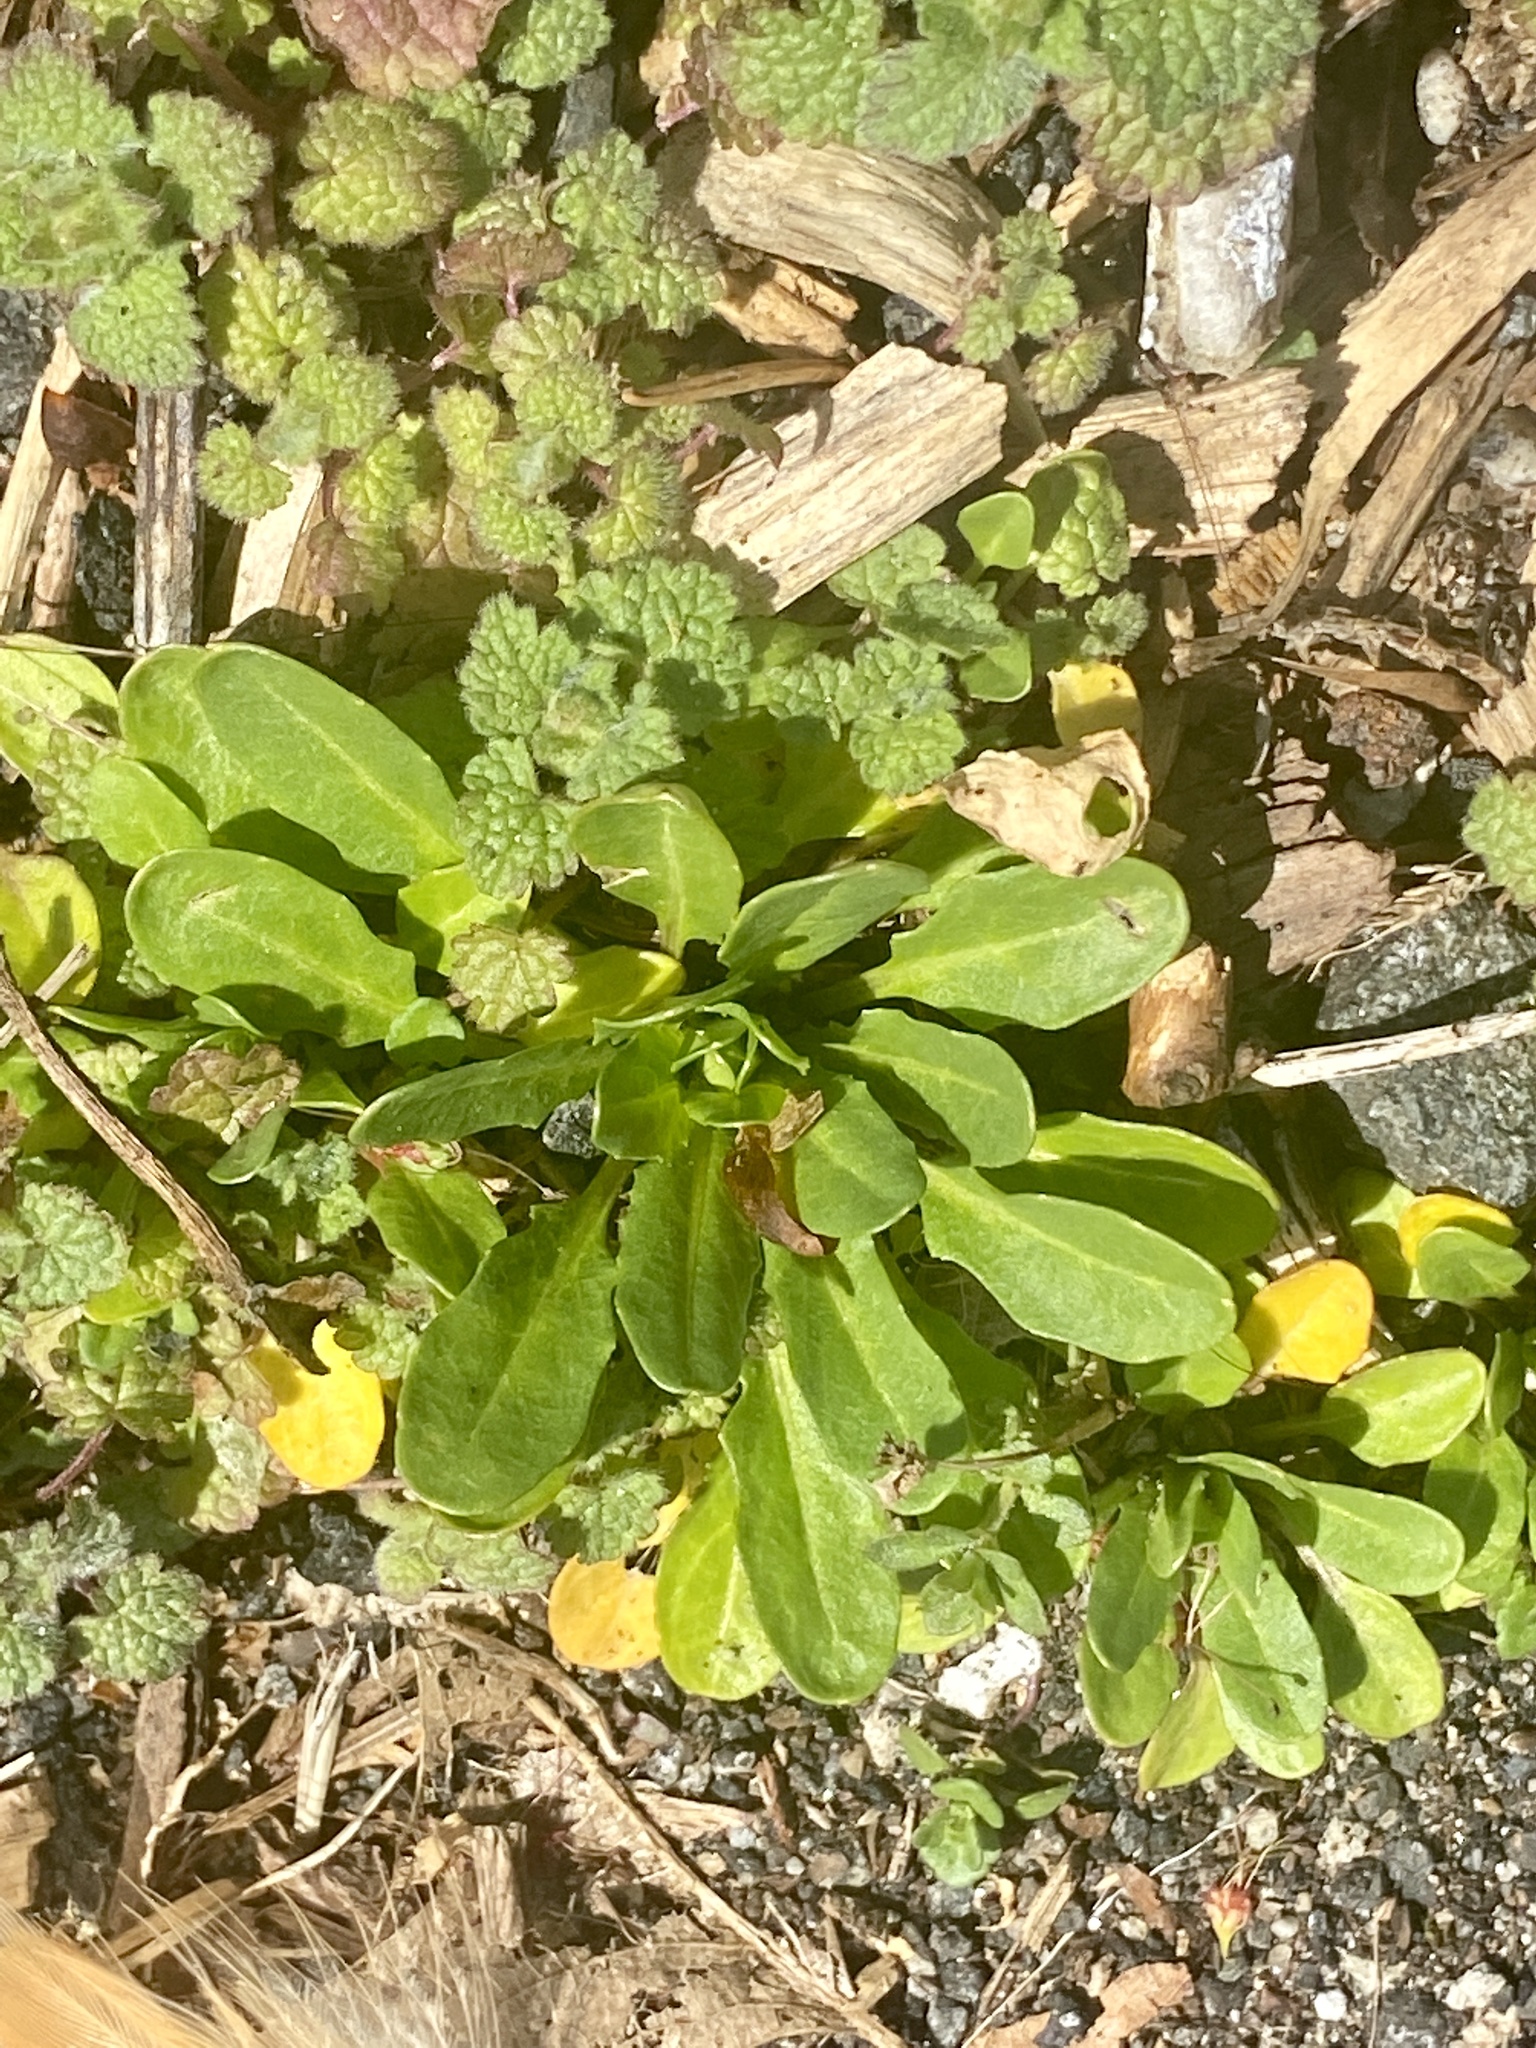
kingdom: Plantae
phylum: Tracheophyta
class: Magnoliopsida
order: Brassicales
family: Brassicaceae
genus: Thlaspi
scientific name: Thlaspi arvense
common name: Field pennycress
